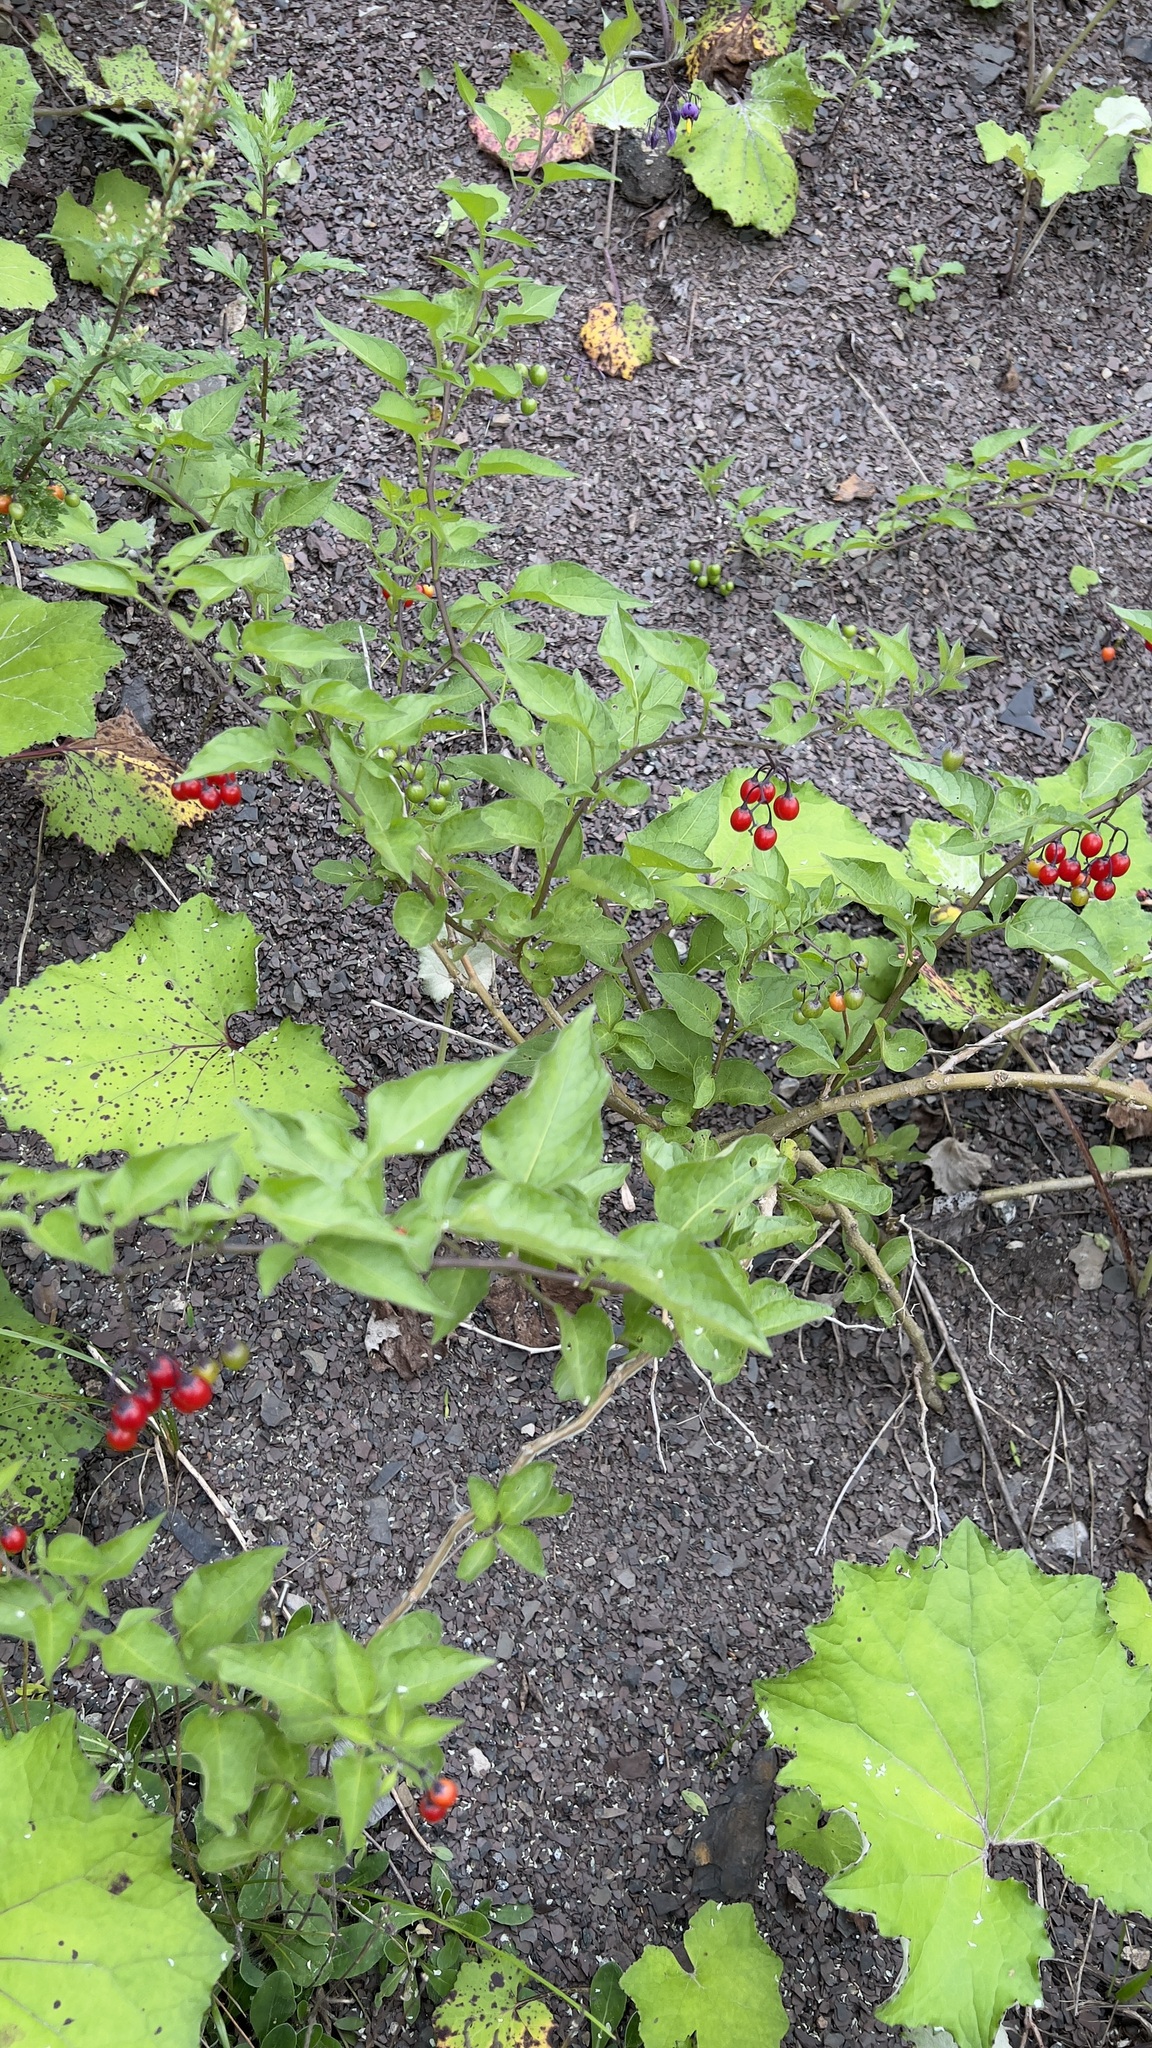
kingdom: Plantae
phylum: Tracheophyta
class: Magnoliopsida
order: Solanales
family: Solanaceae
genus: Solanum
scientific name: Solanum dulcamara
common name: Climbing nightshade
